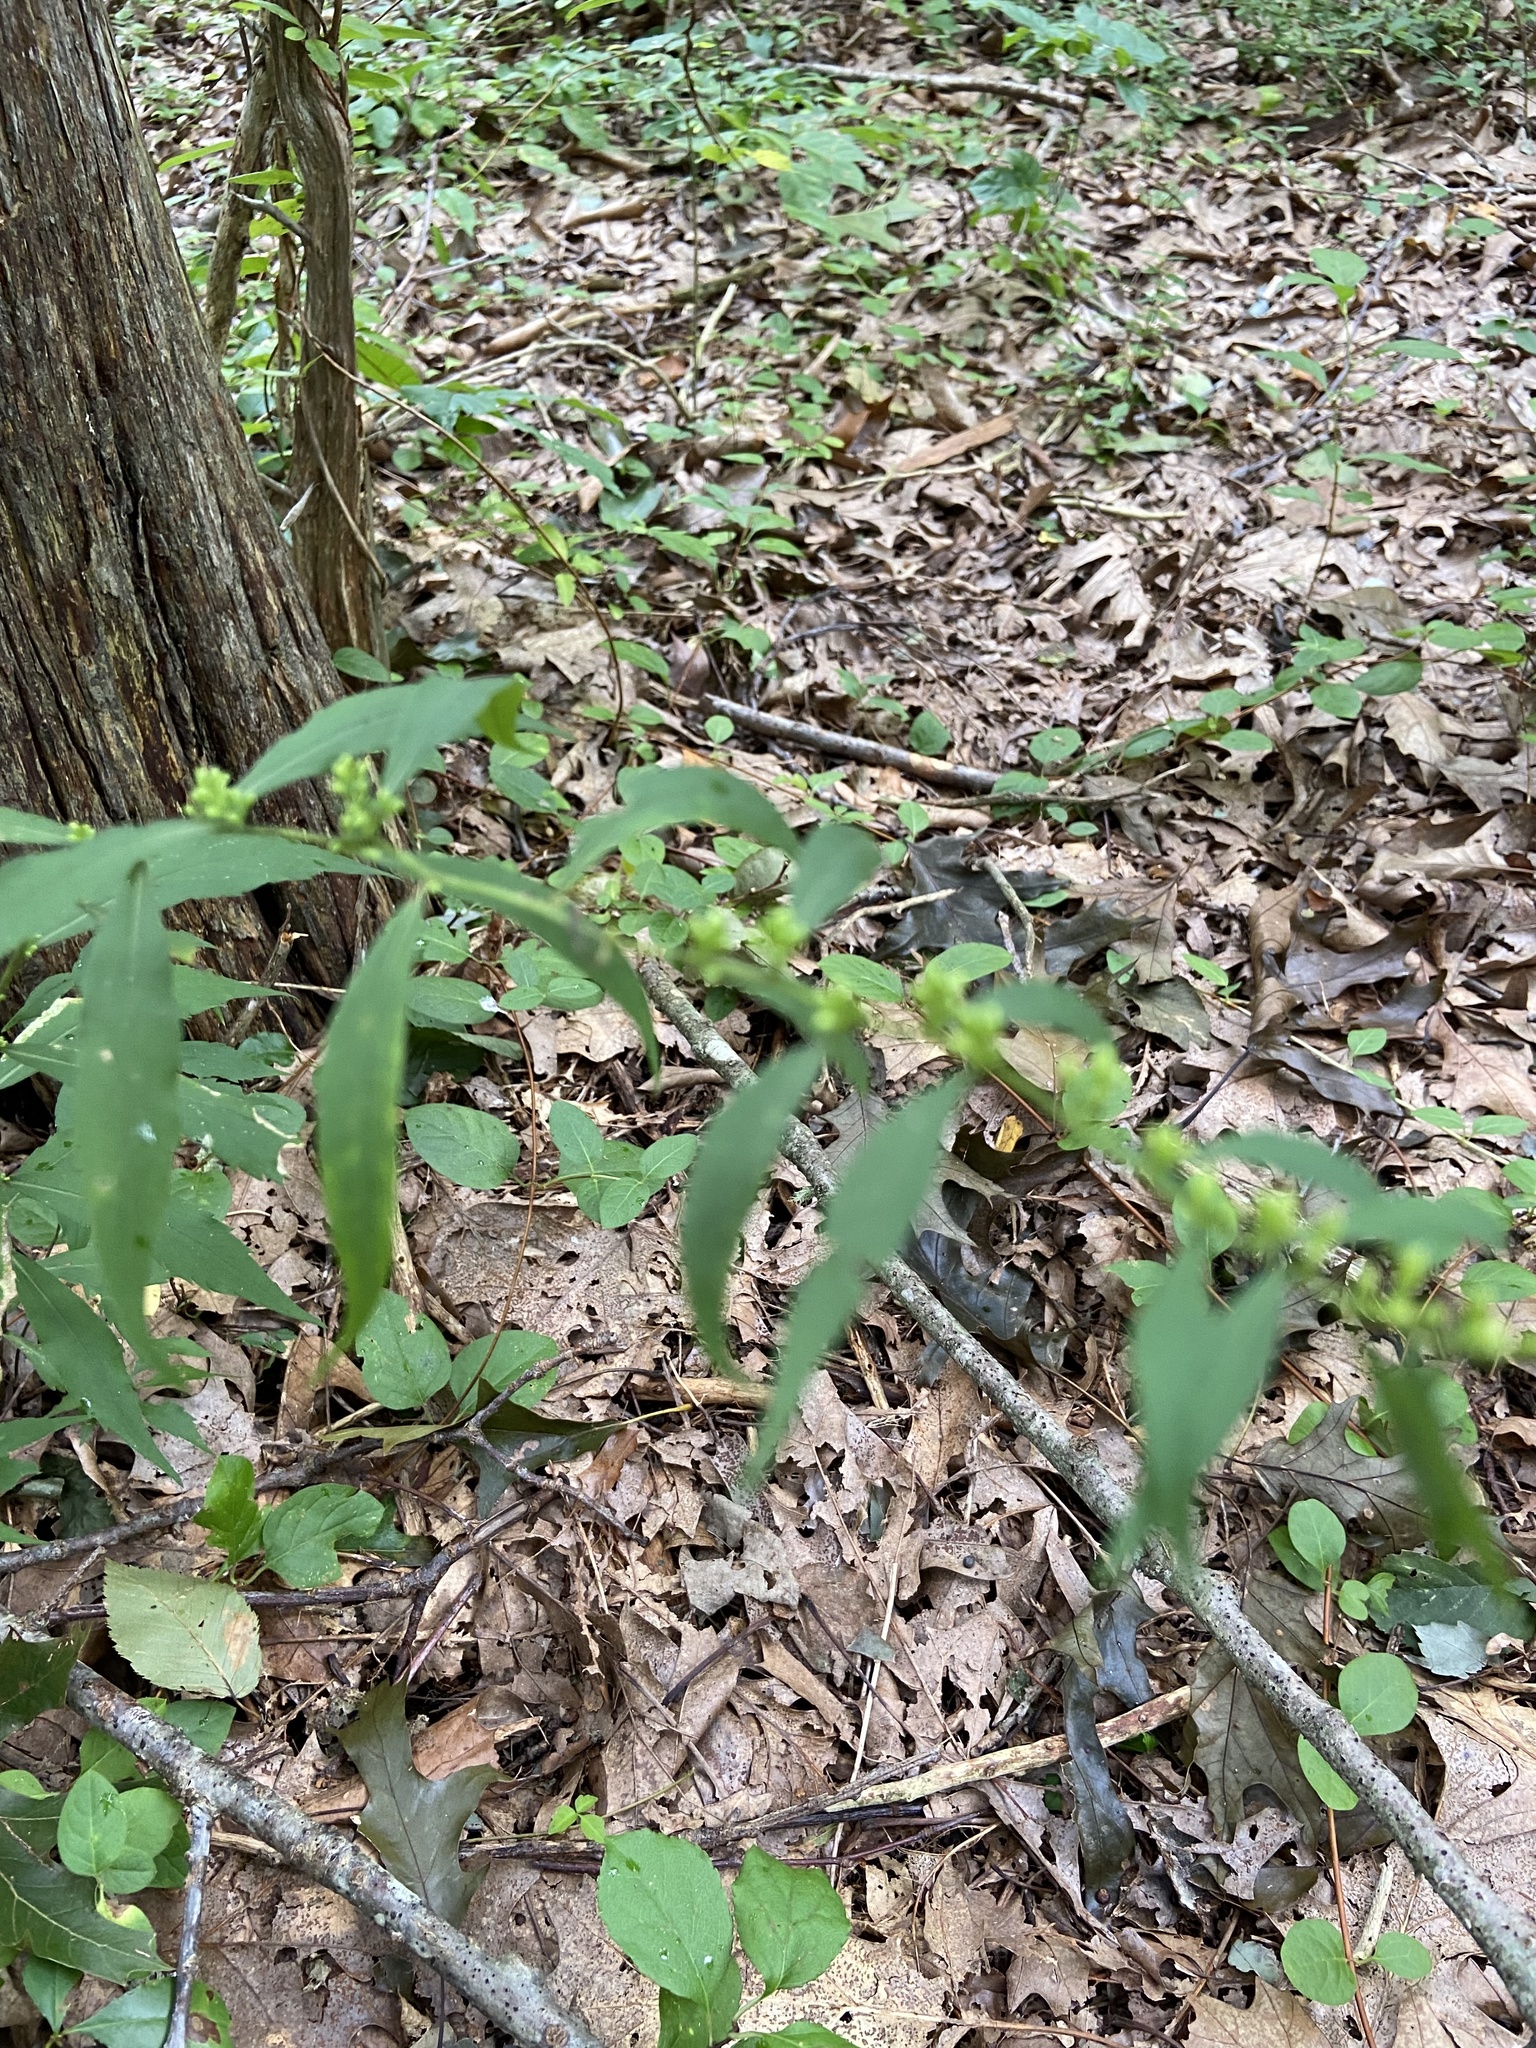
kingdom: Plantae
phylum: Tracheophyta
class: Magnoliopsida
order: Asterales
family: Asteraceae
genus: Solidago
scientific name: Solidago caesia
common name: Woodland goldenrod
